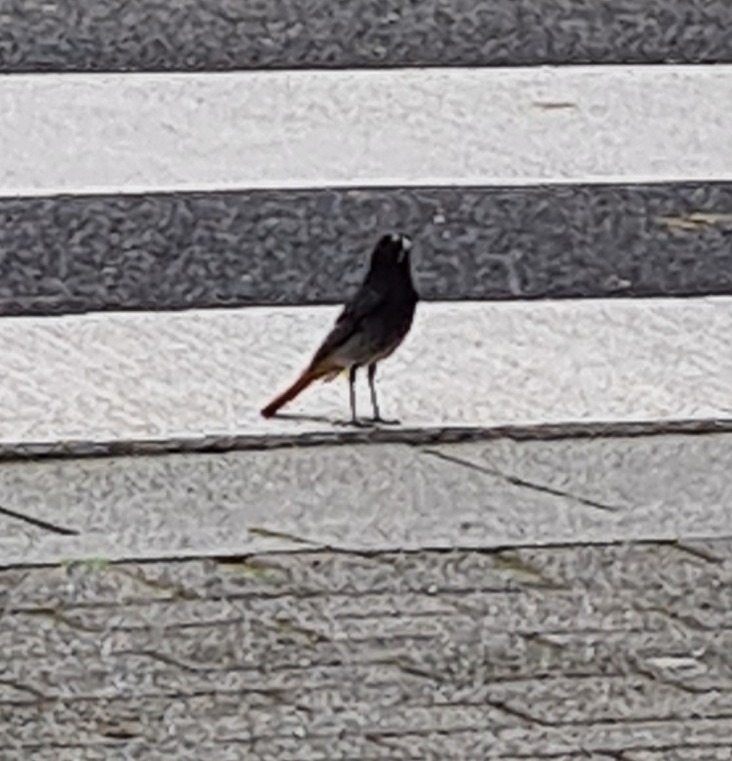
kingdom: Animalia
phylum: Chordata
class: Aves
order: Passeriformes
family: Muscicapidae
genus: Phoenicurus
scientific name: Phoenicurus ochruros
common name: Black redstart
